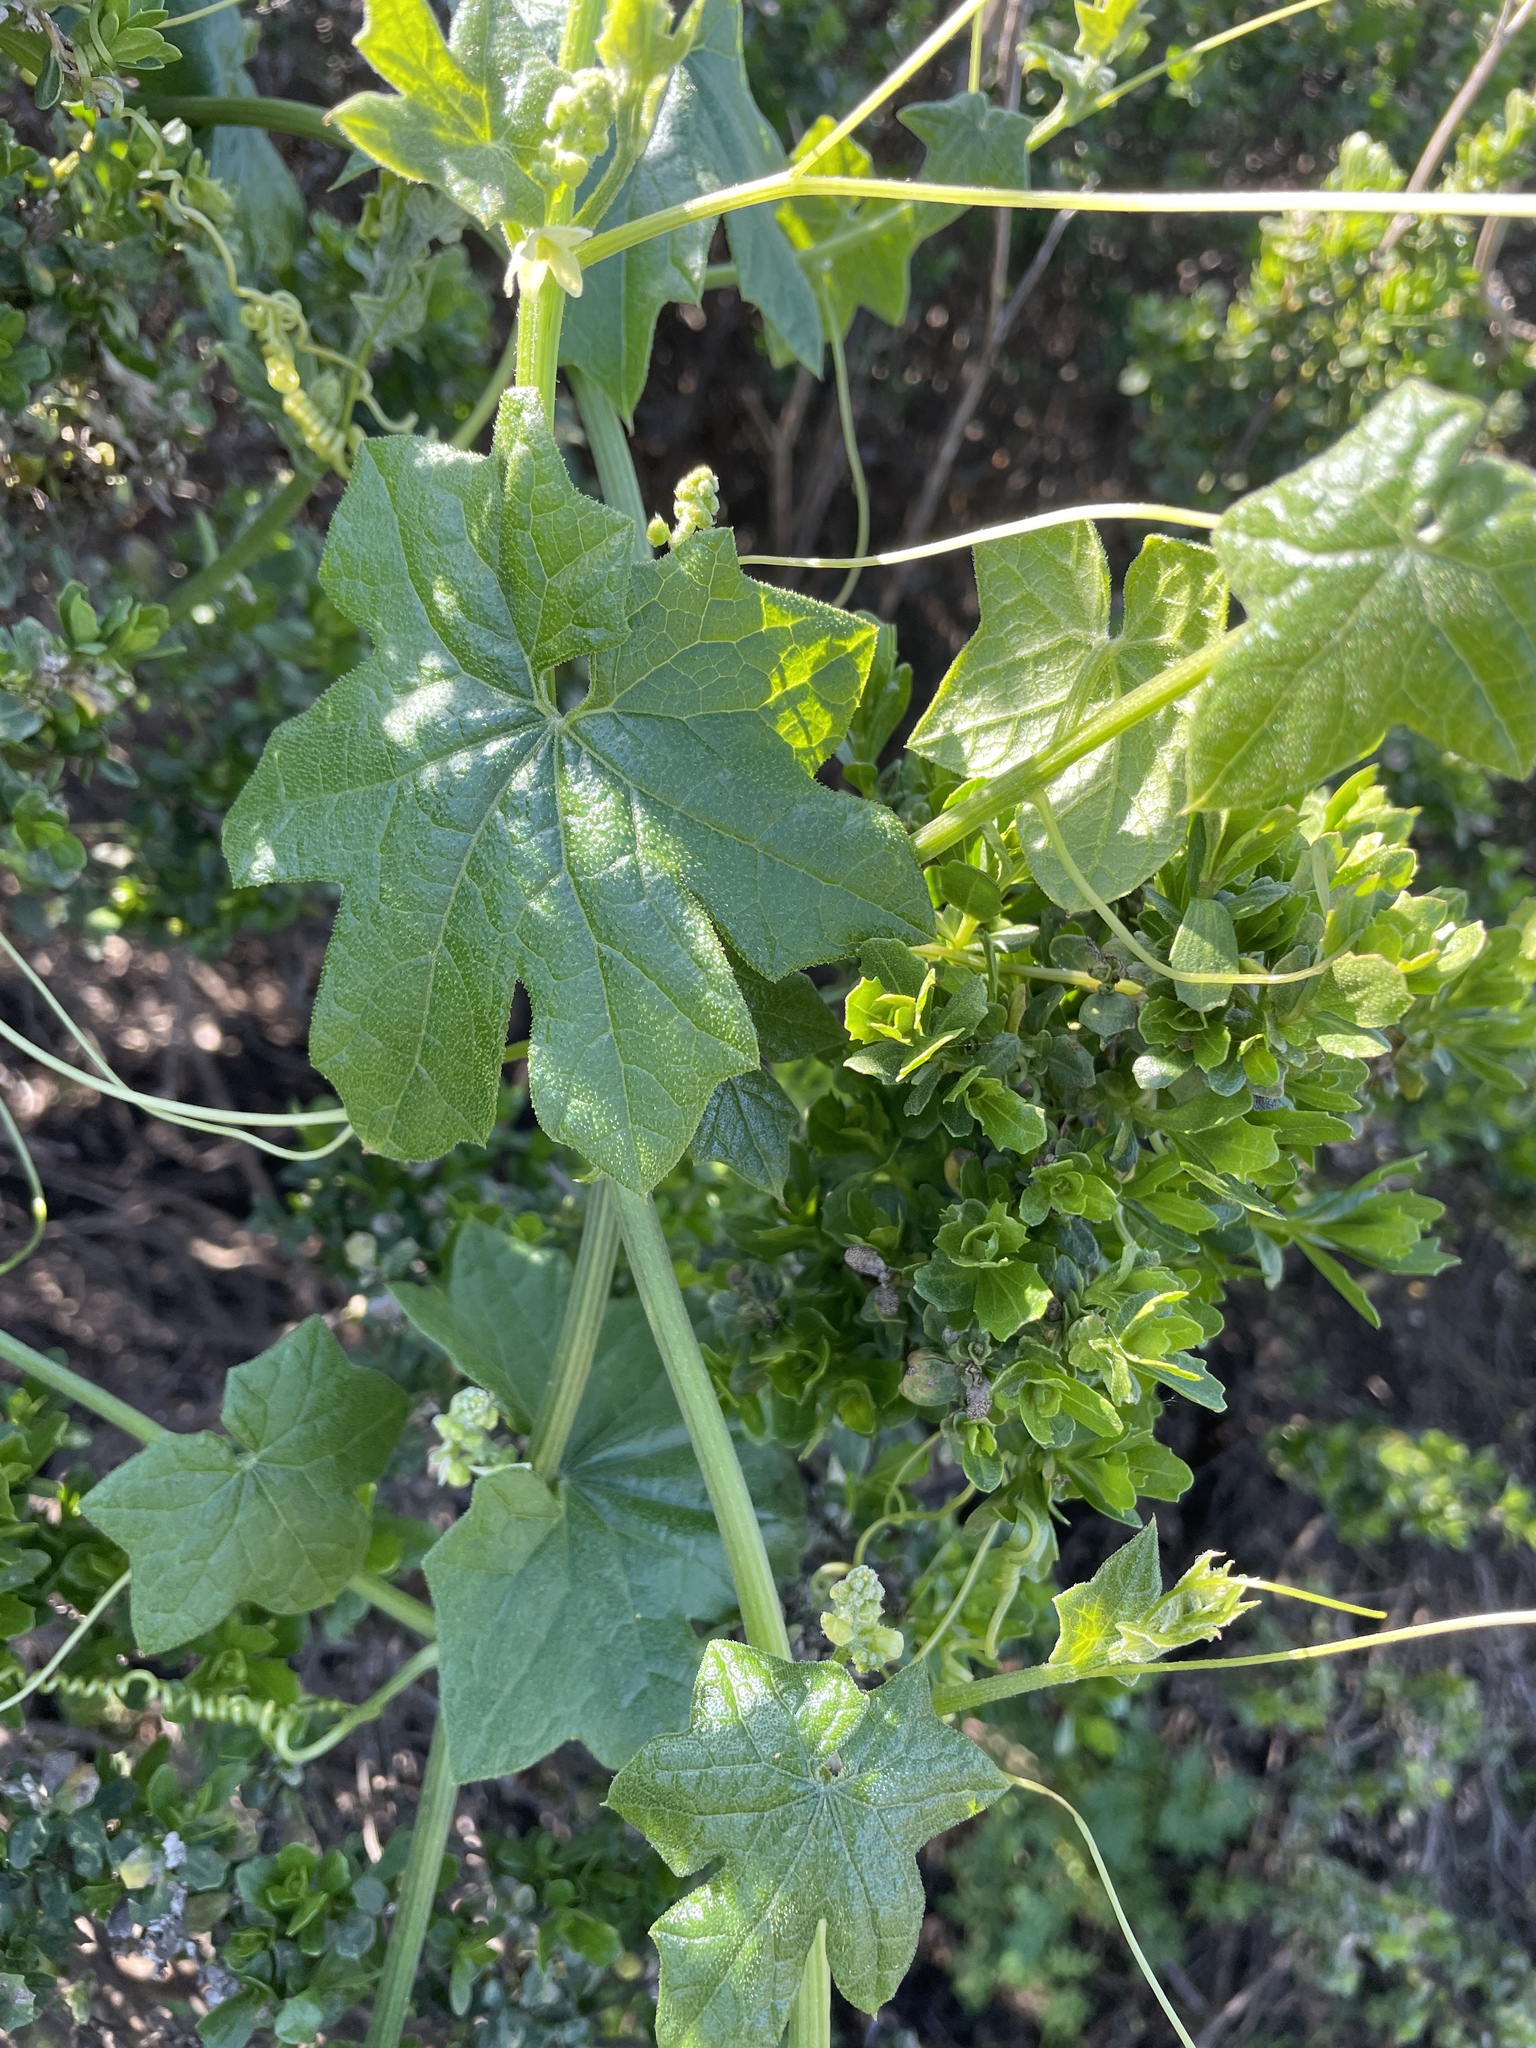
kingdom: Plantae
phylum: Tracheophyta
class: Magnoliopsida
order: Cucurbitales
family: Cucurbitaceae
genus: Marah
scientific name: Marah fabacea
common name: California manroot
